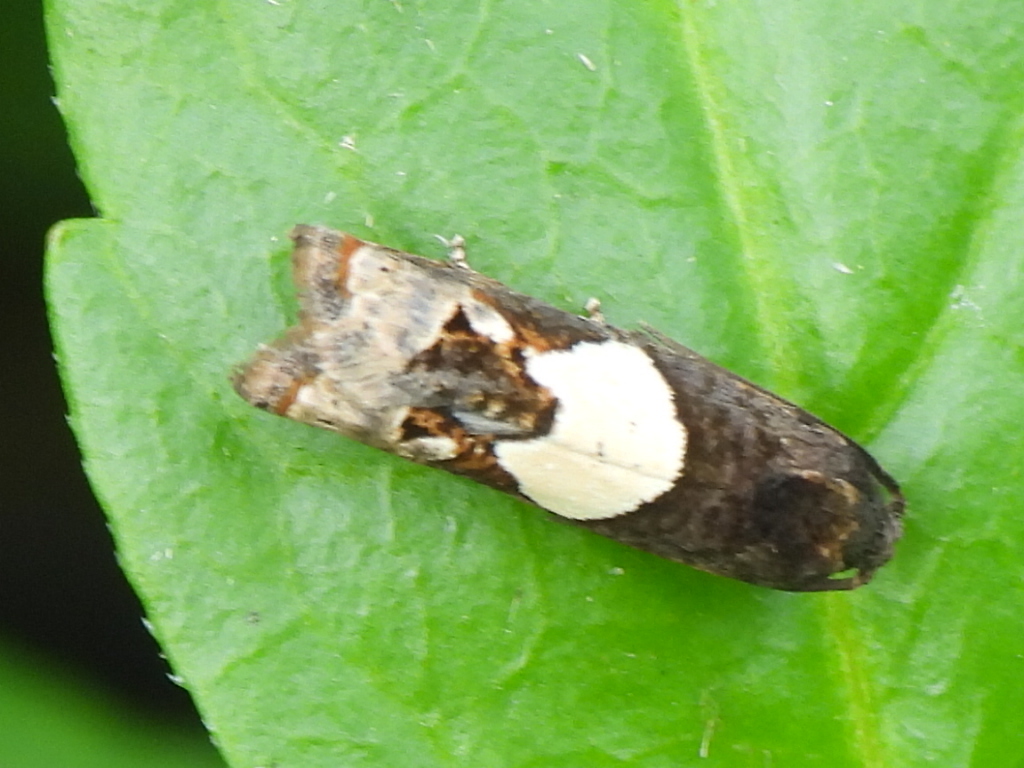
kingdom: Animalia
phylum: Arthropoda
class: Insecta
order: Lepidoptera
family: Tortricidae
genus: Epiblema
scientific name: Epiblema otiosana
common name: Bidens borer moth
